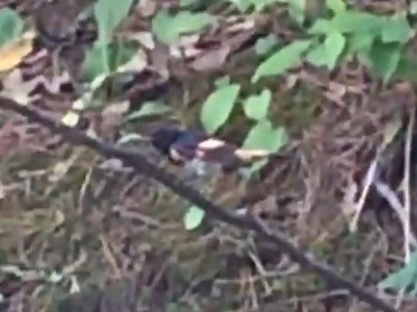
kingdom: Animalia
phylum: Chordata
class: Aves
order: Passeriformes
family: Parulidae
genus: Setophaga
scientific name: Setophaga ruticilla
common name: American redstart
